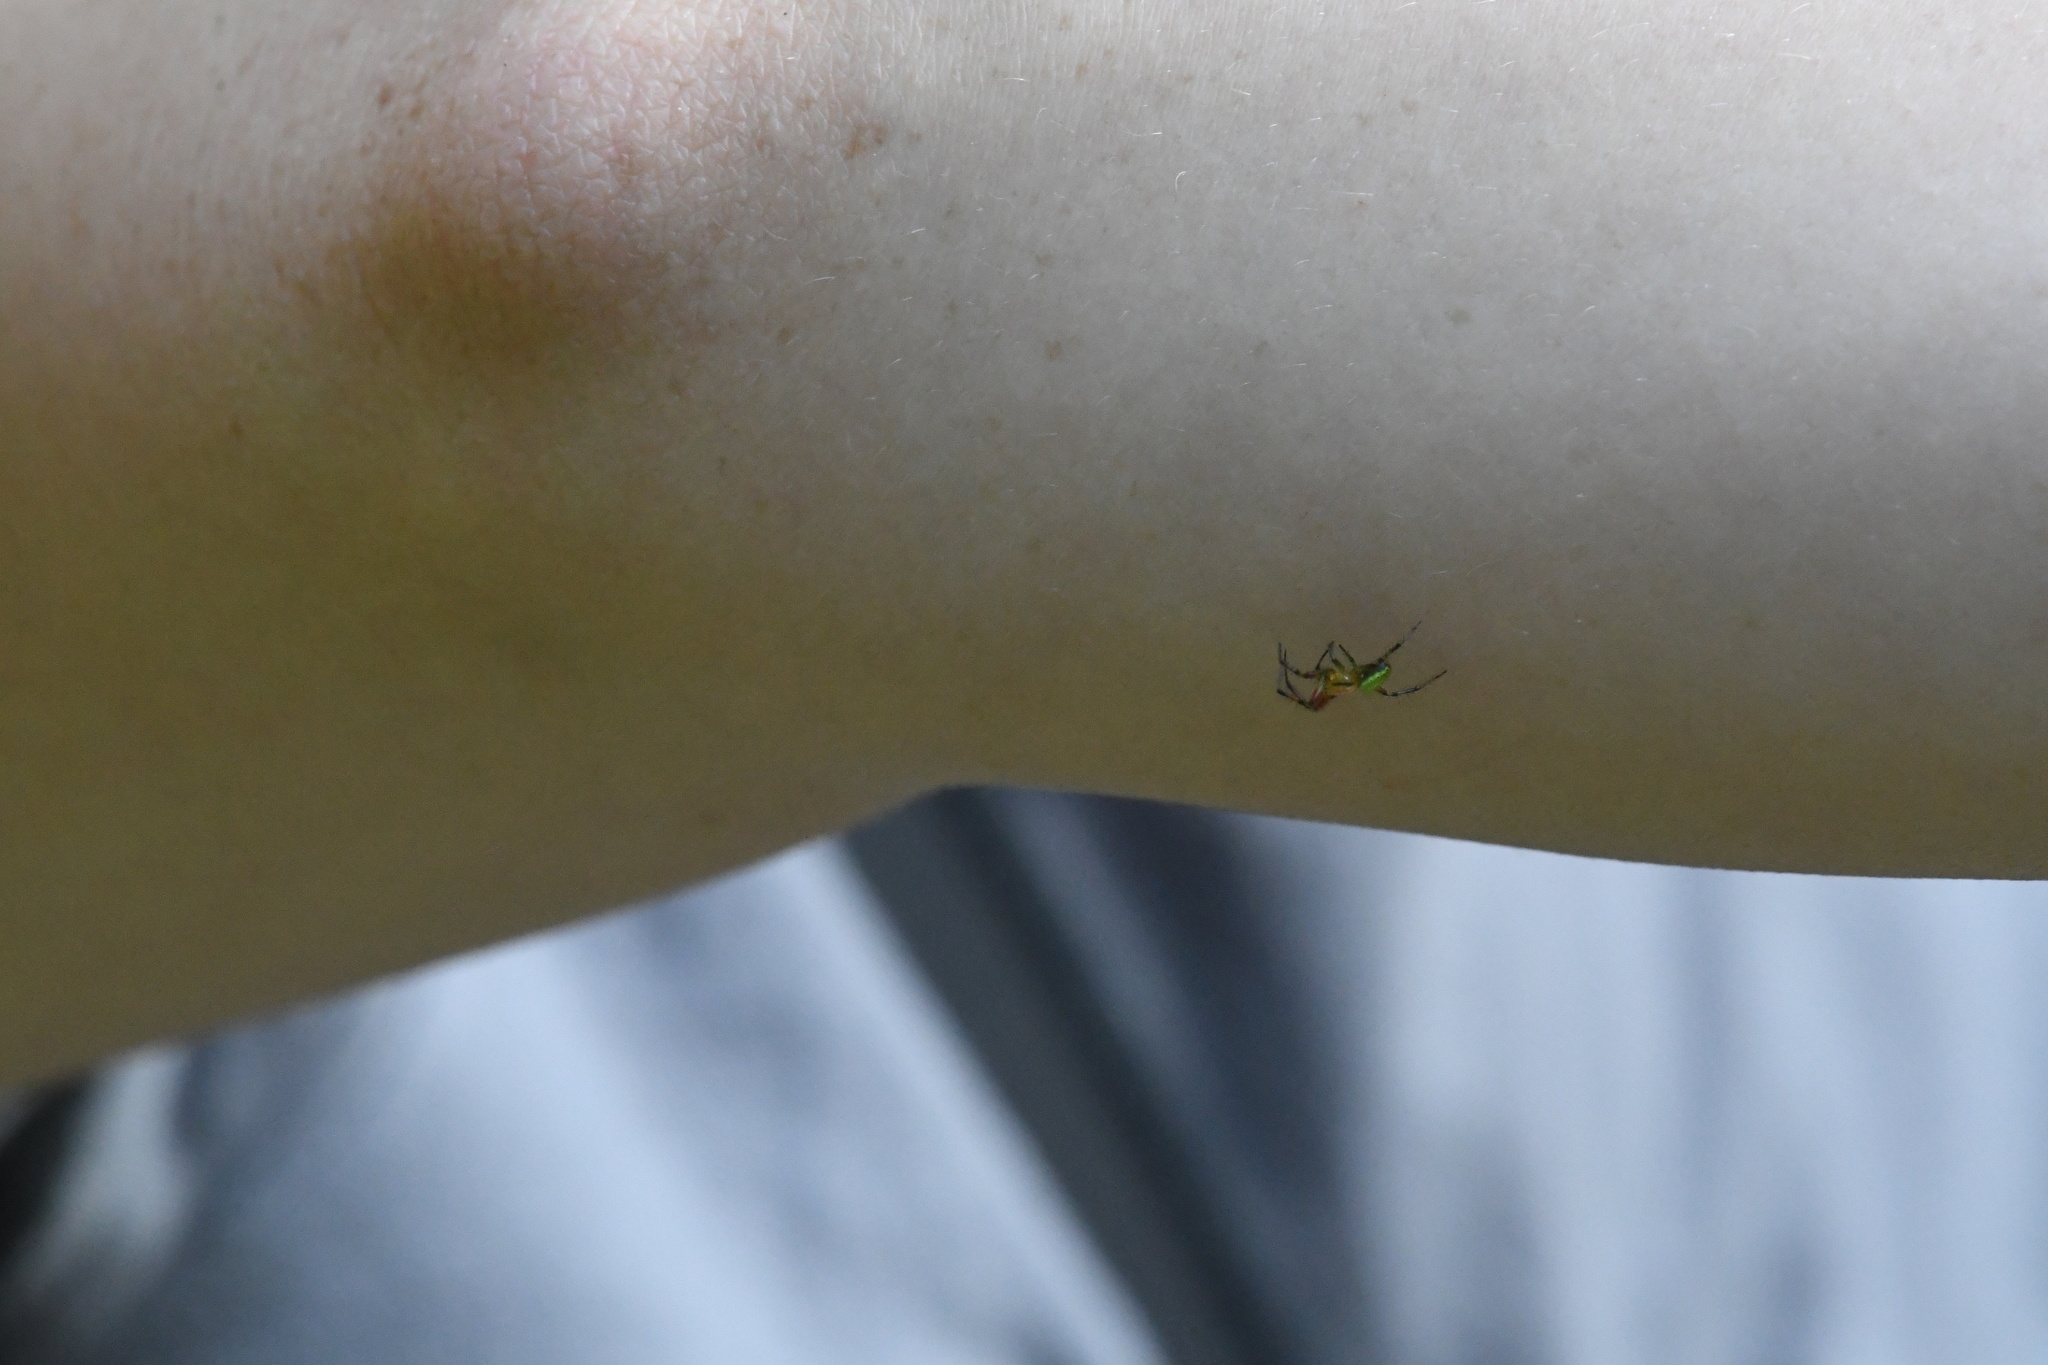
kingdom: Animalia
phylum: Arthropoda
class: Arachnida
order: Araneae
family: Araneidae
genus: Araniella
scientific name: Araniella
